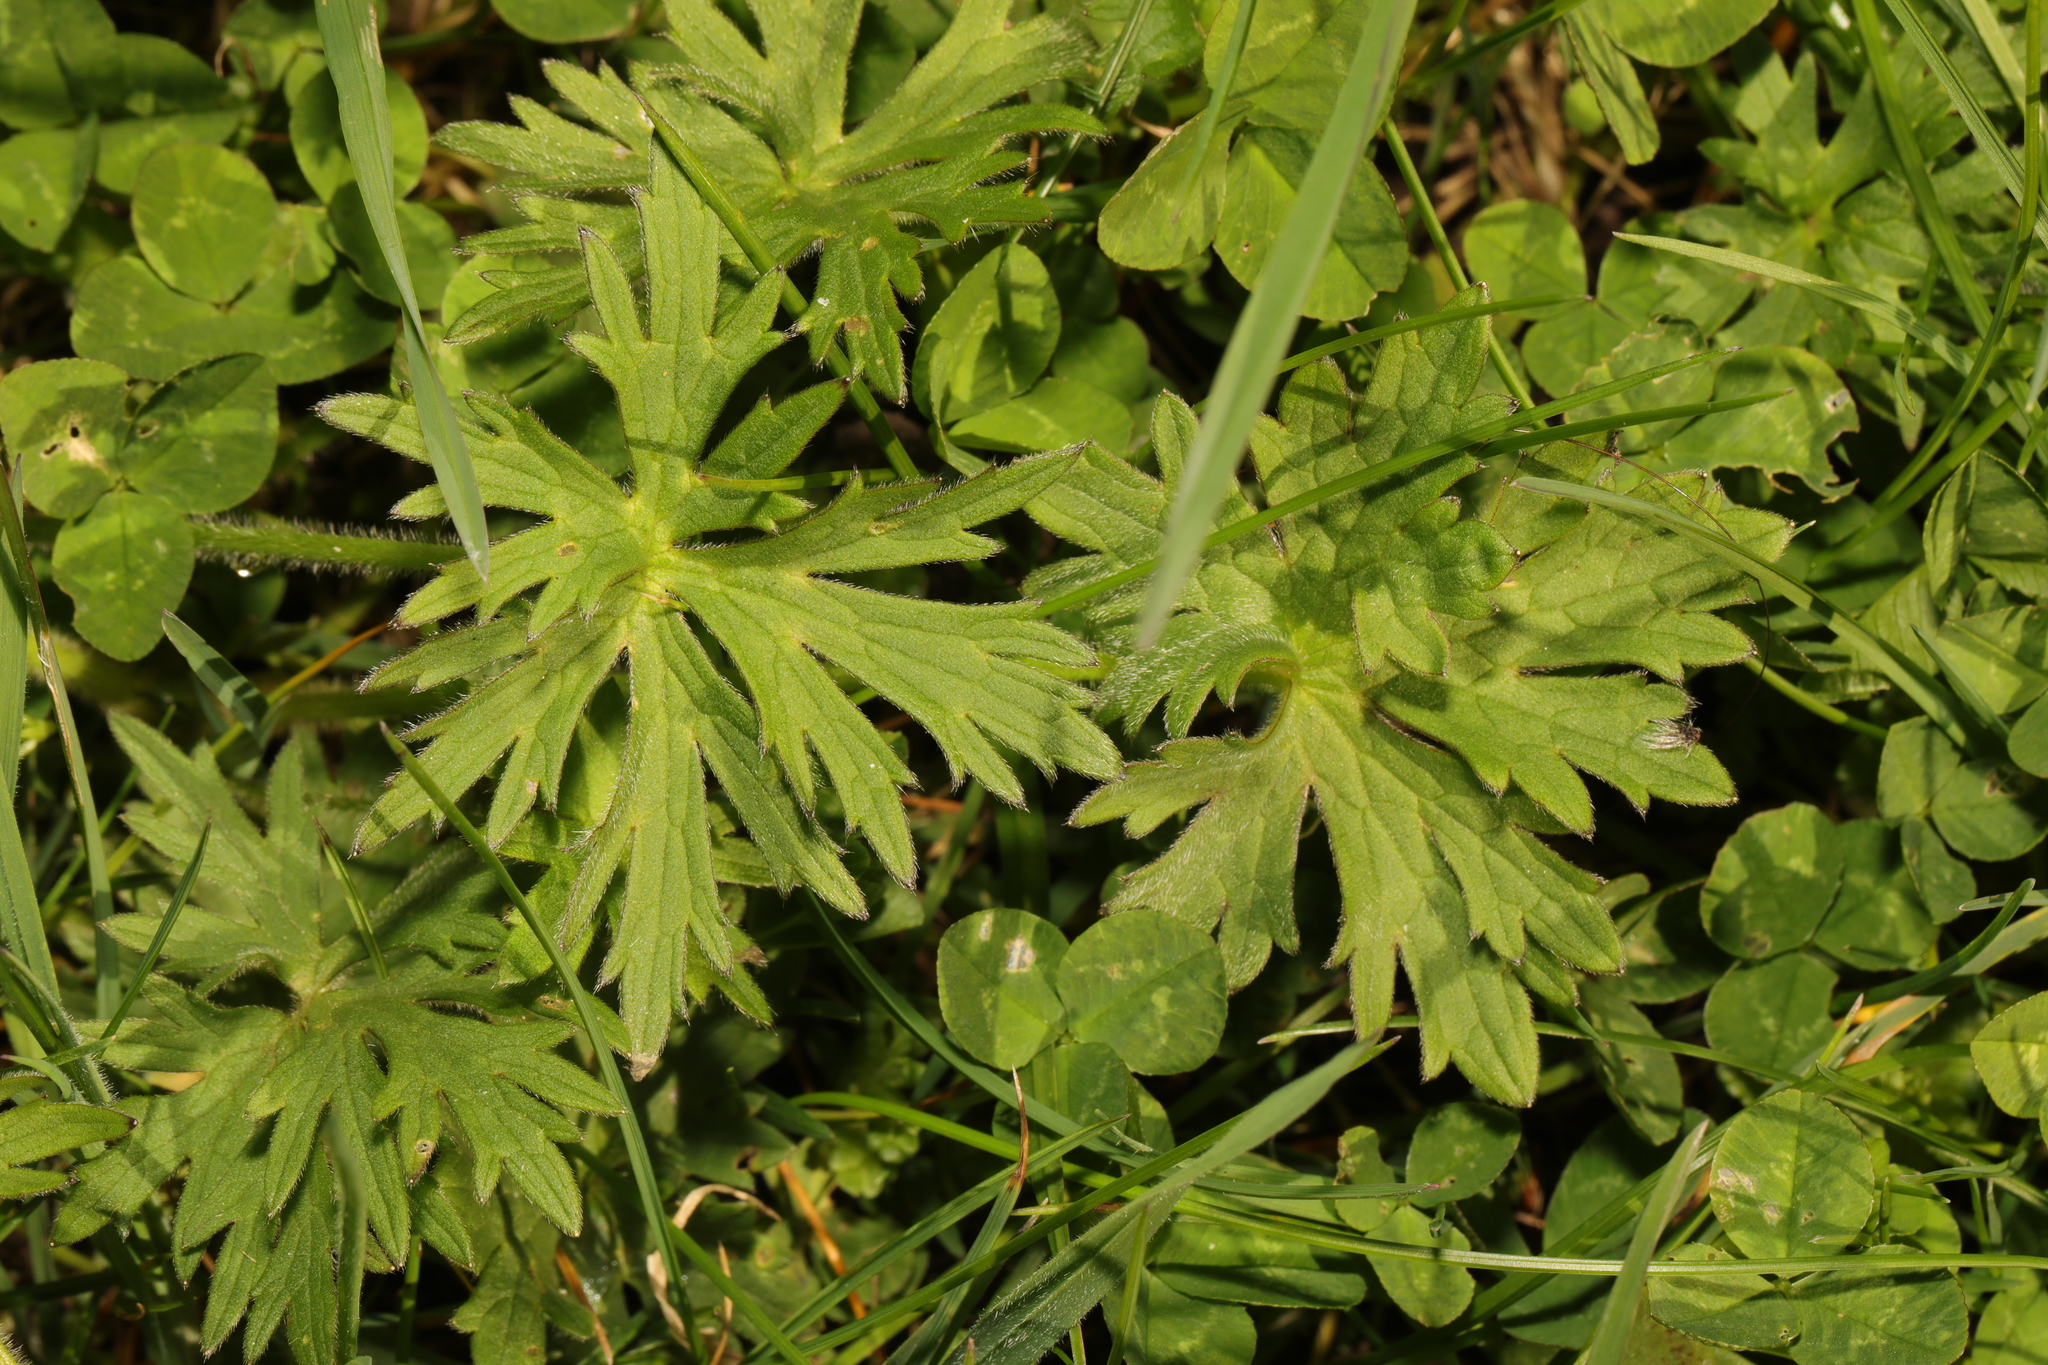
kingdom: Plantae
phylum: Tracheophyta
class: Magnoliopsida
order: Ranunculales
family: Ranunculaceae
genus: Ranunculus
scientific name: Ranunculus acris
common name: Meadow buttercup
